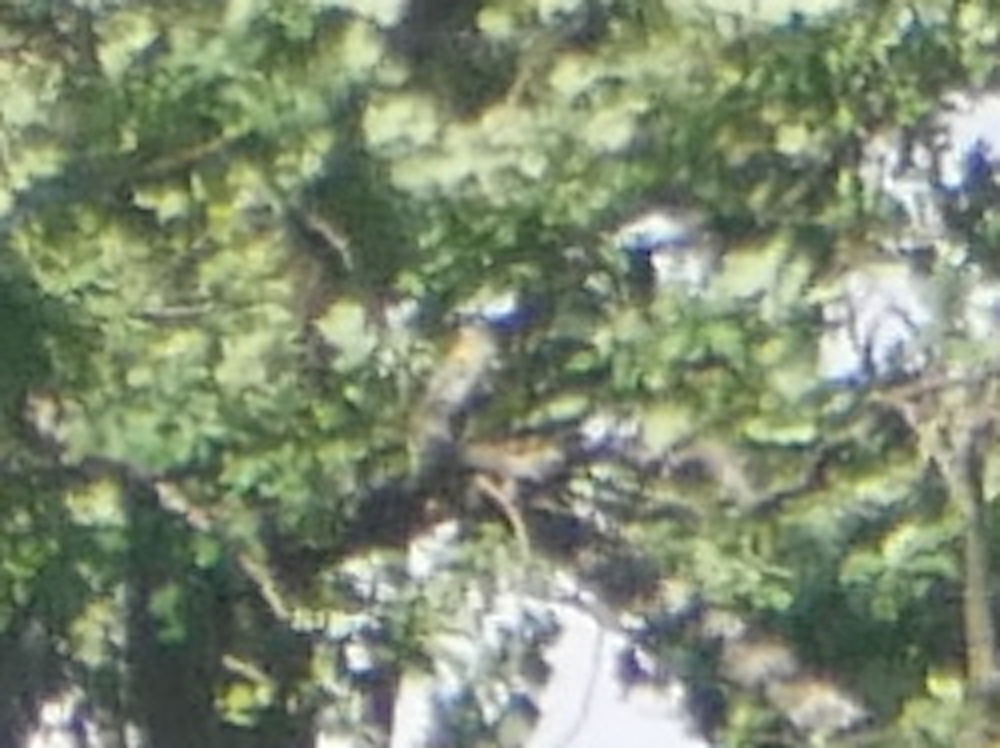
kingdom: Animalia
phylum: Chordata
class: Aves
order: Bucerotiformes
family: Upupidae
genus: Upupa
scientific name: Upupa epops
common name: Eurasian hoopoe
